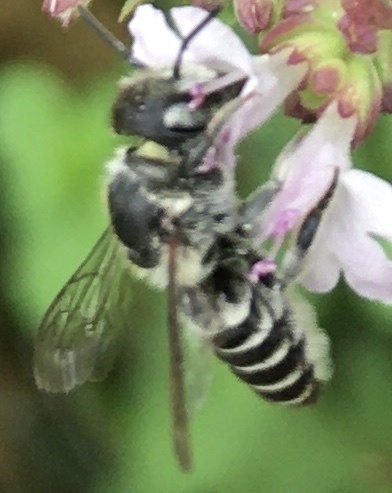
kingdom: Animalia
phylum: Arthropoda
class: Insecta
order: Hymenoptera
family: Megachilidae
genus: Megachile
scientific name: Megachile rotundata
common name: Alfalfa leafcutting bee
